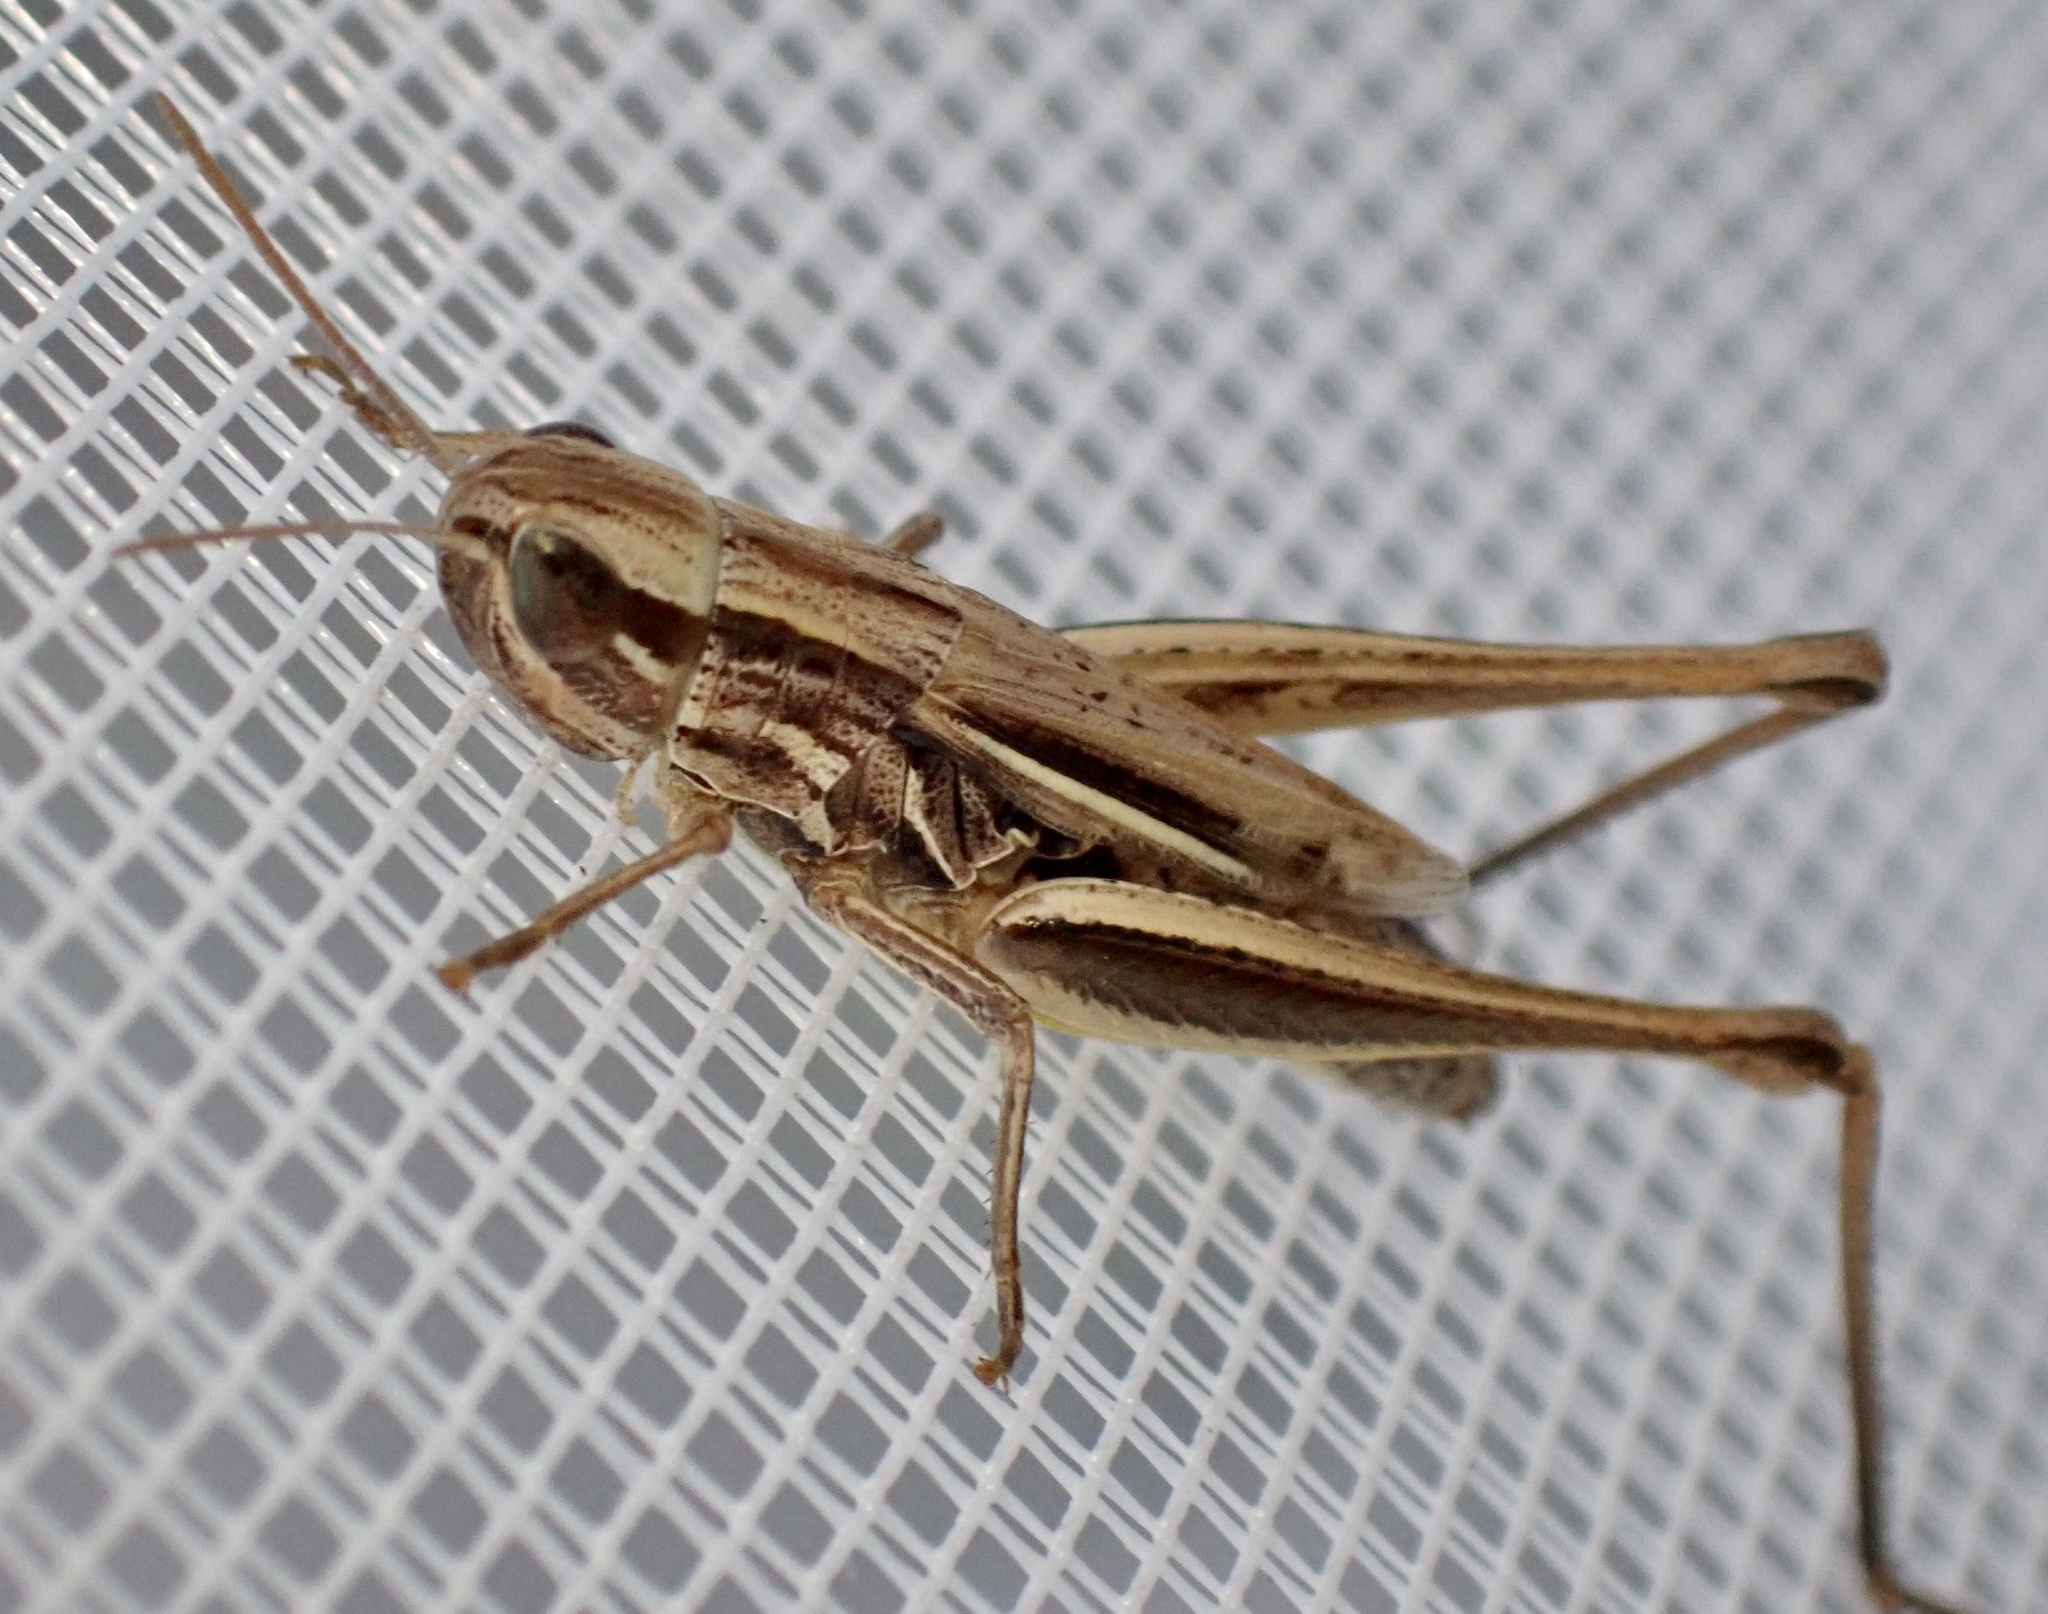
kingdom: Animalia
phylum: Arthropoda
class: Insecta
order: Orthoptera
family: Acrididae
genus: Euchorthippus
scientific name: Euchorthippus declivus
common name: Common straw grasshopper
